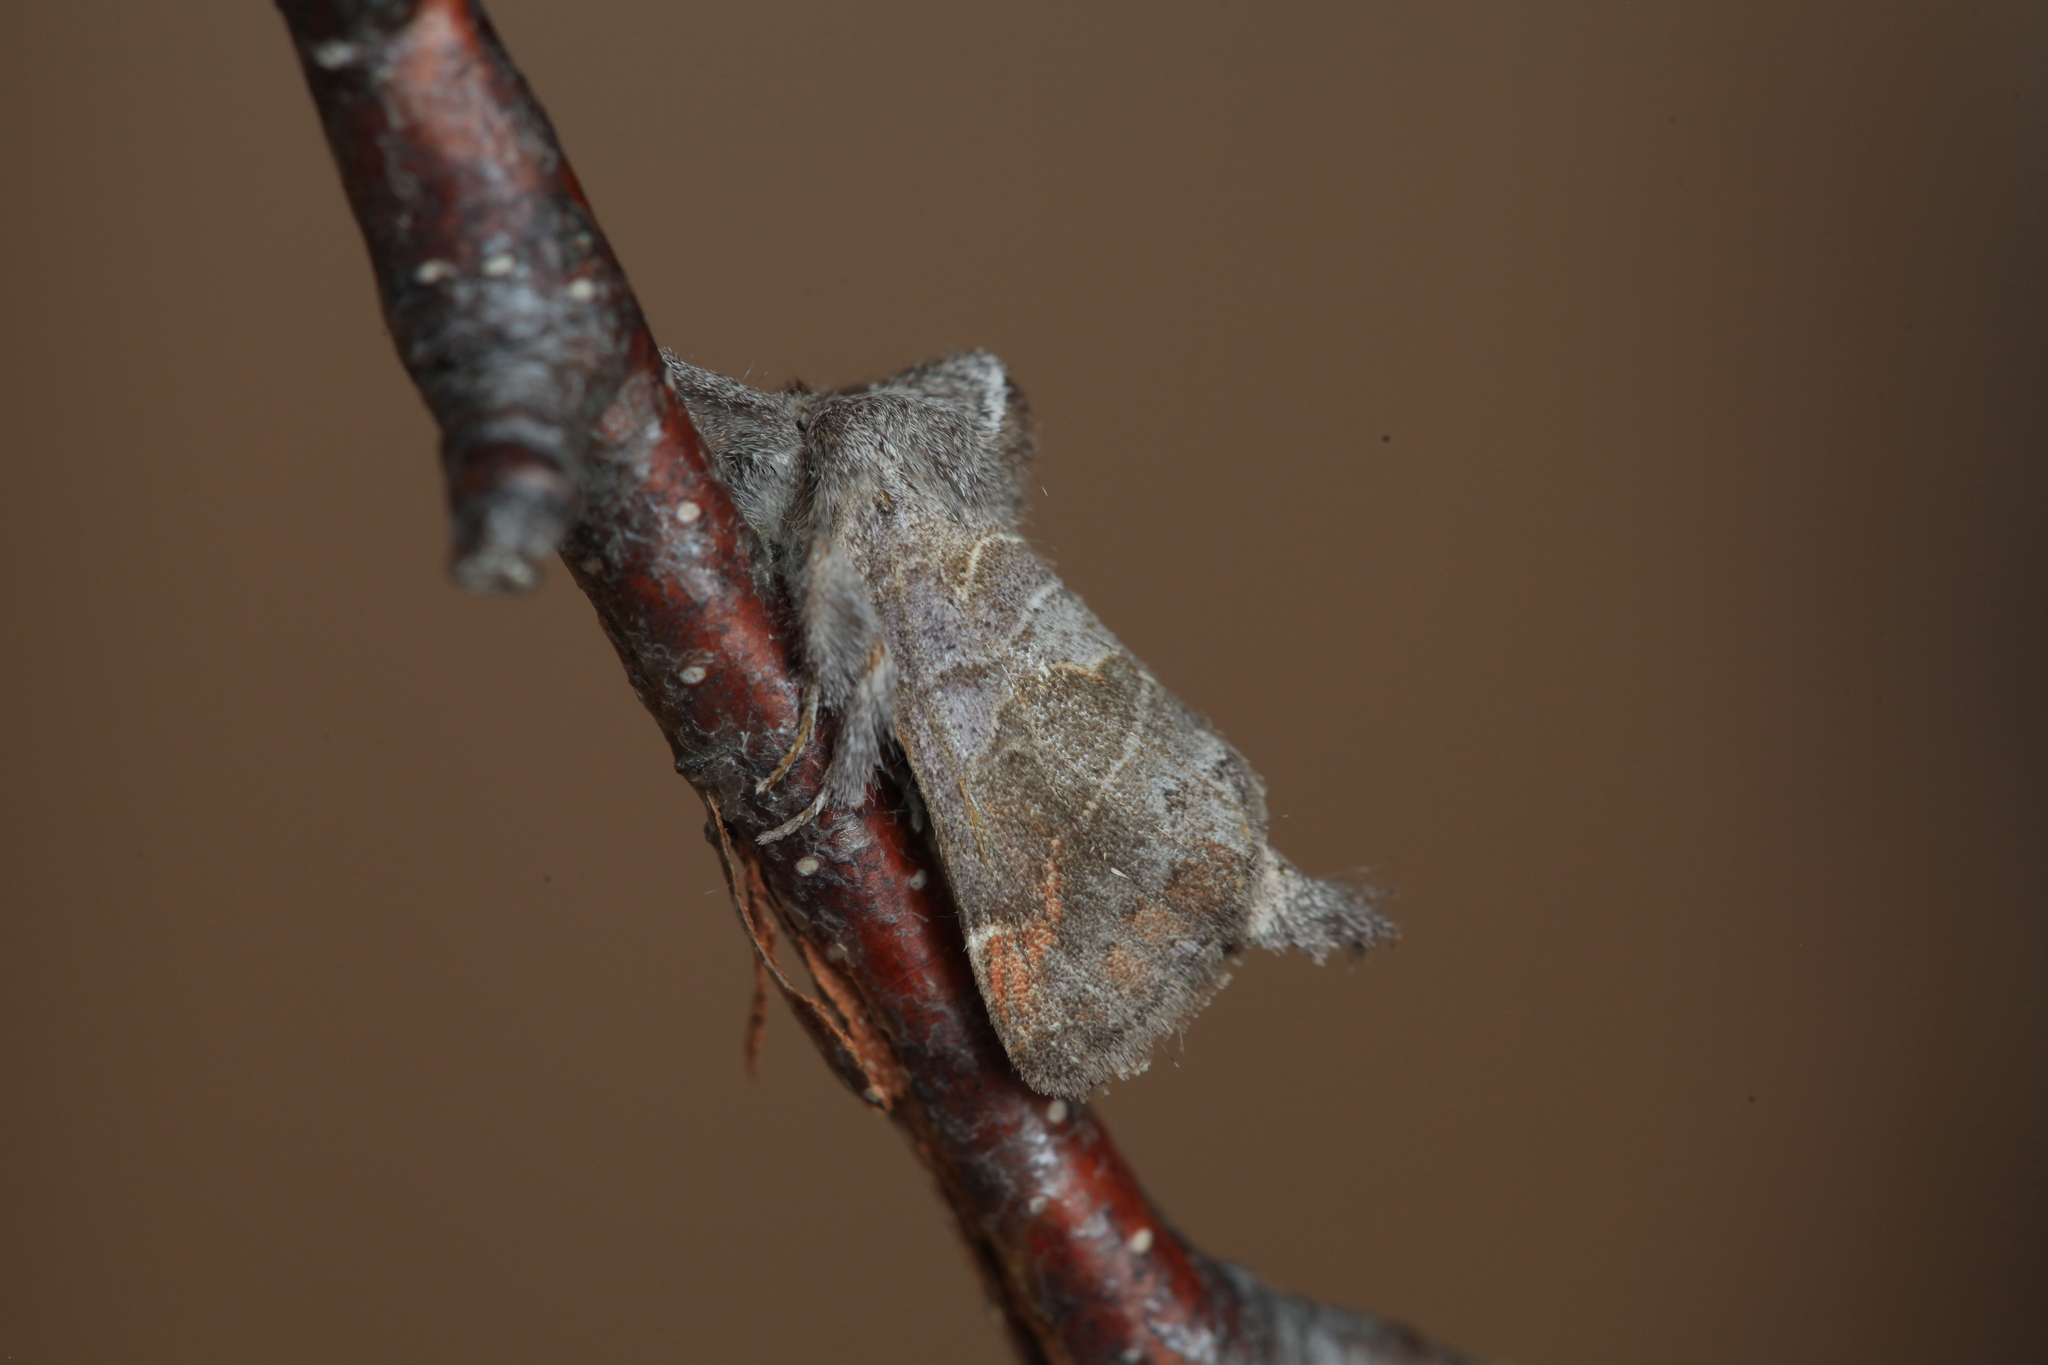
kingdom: Animalia
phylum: Arthropoda
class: Insecta
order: Lepidoptera
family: Notodontidae
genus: Clostera
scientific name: Clostera pigra
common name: Small chocolate-tip
